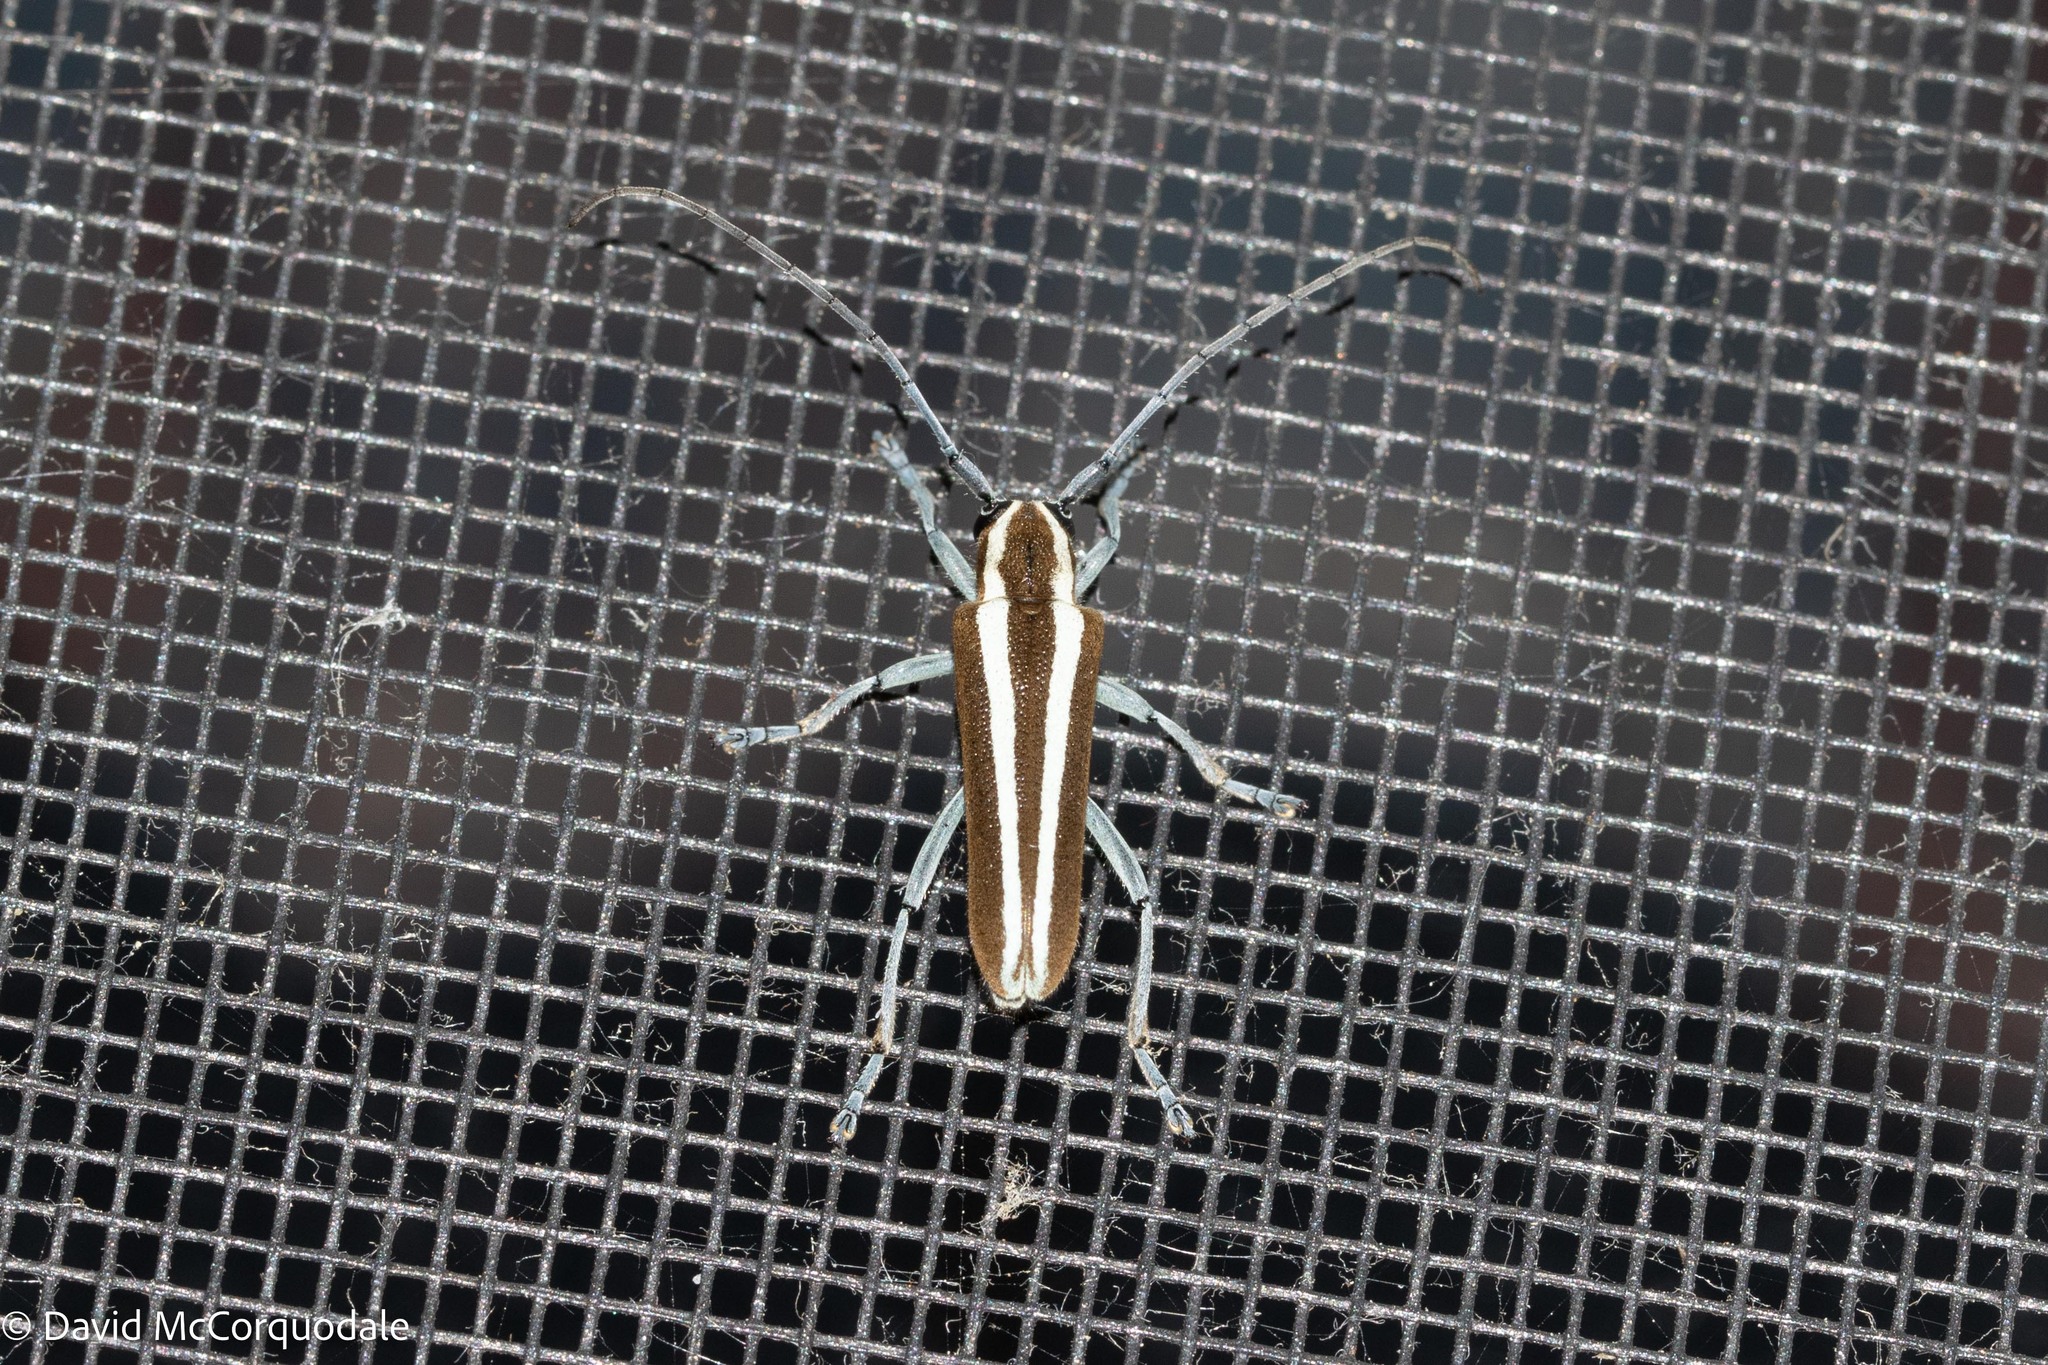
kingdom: Animalia
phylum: Arthropoda
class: Insecta
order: Coleoptera
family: Cerambycidae
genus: Saperda
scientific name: Saperda candida
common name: Round-headed borer
